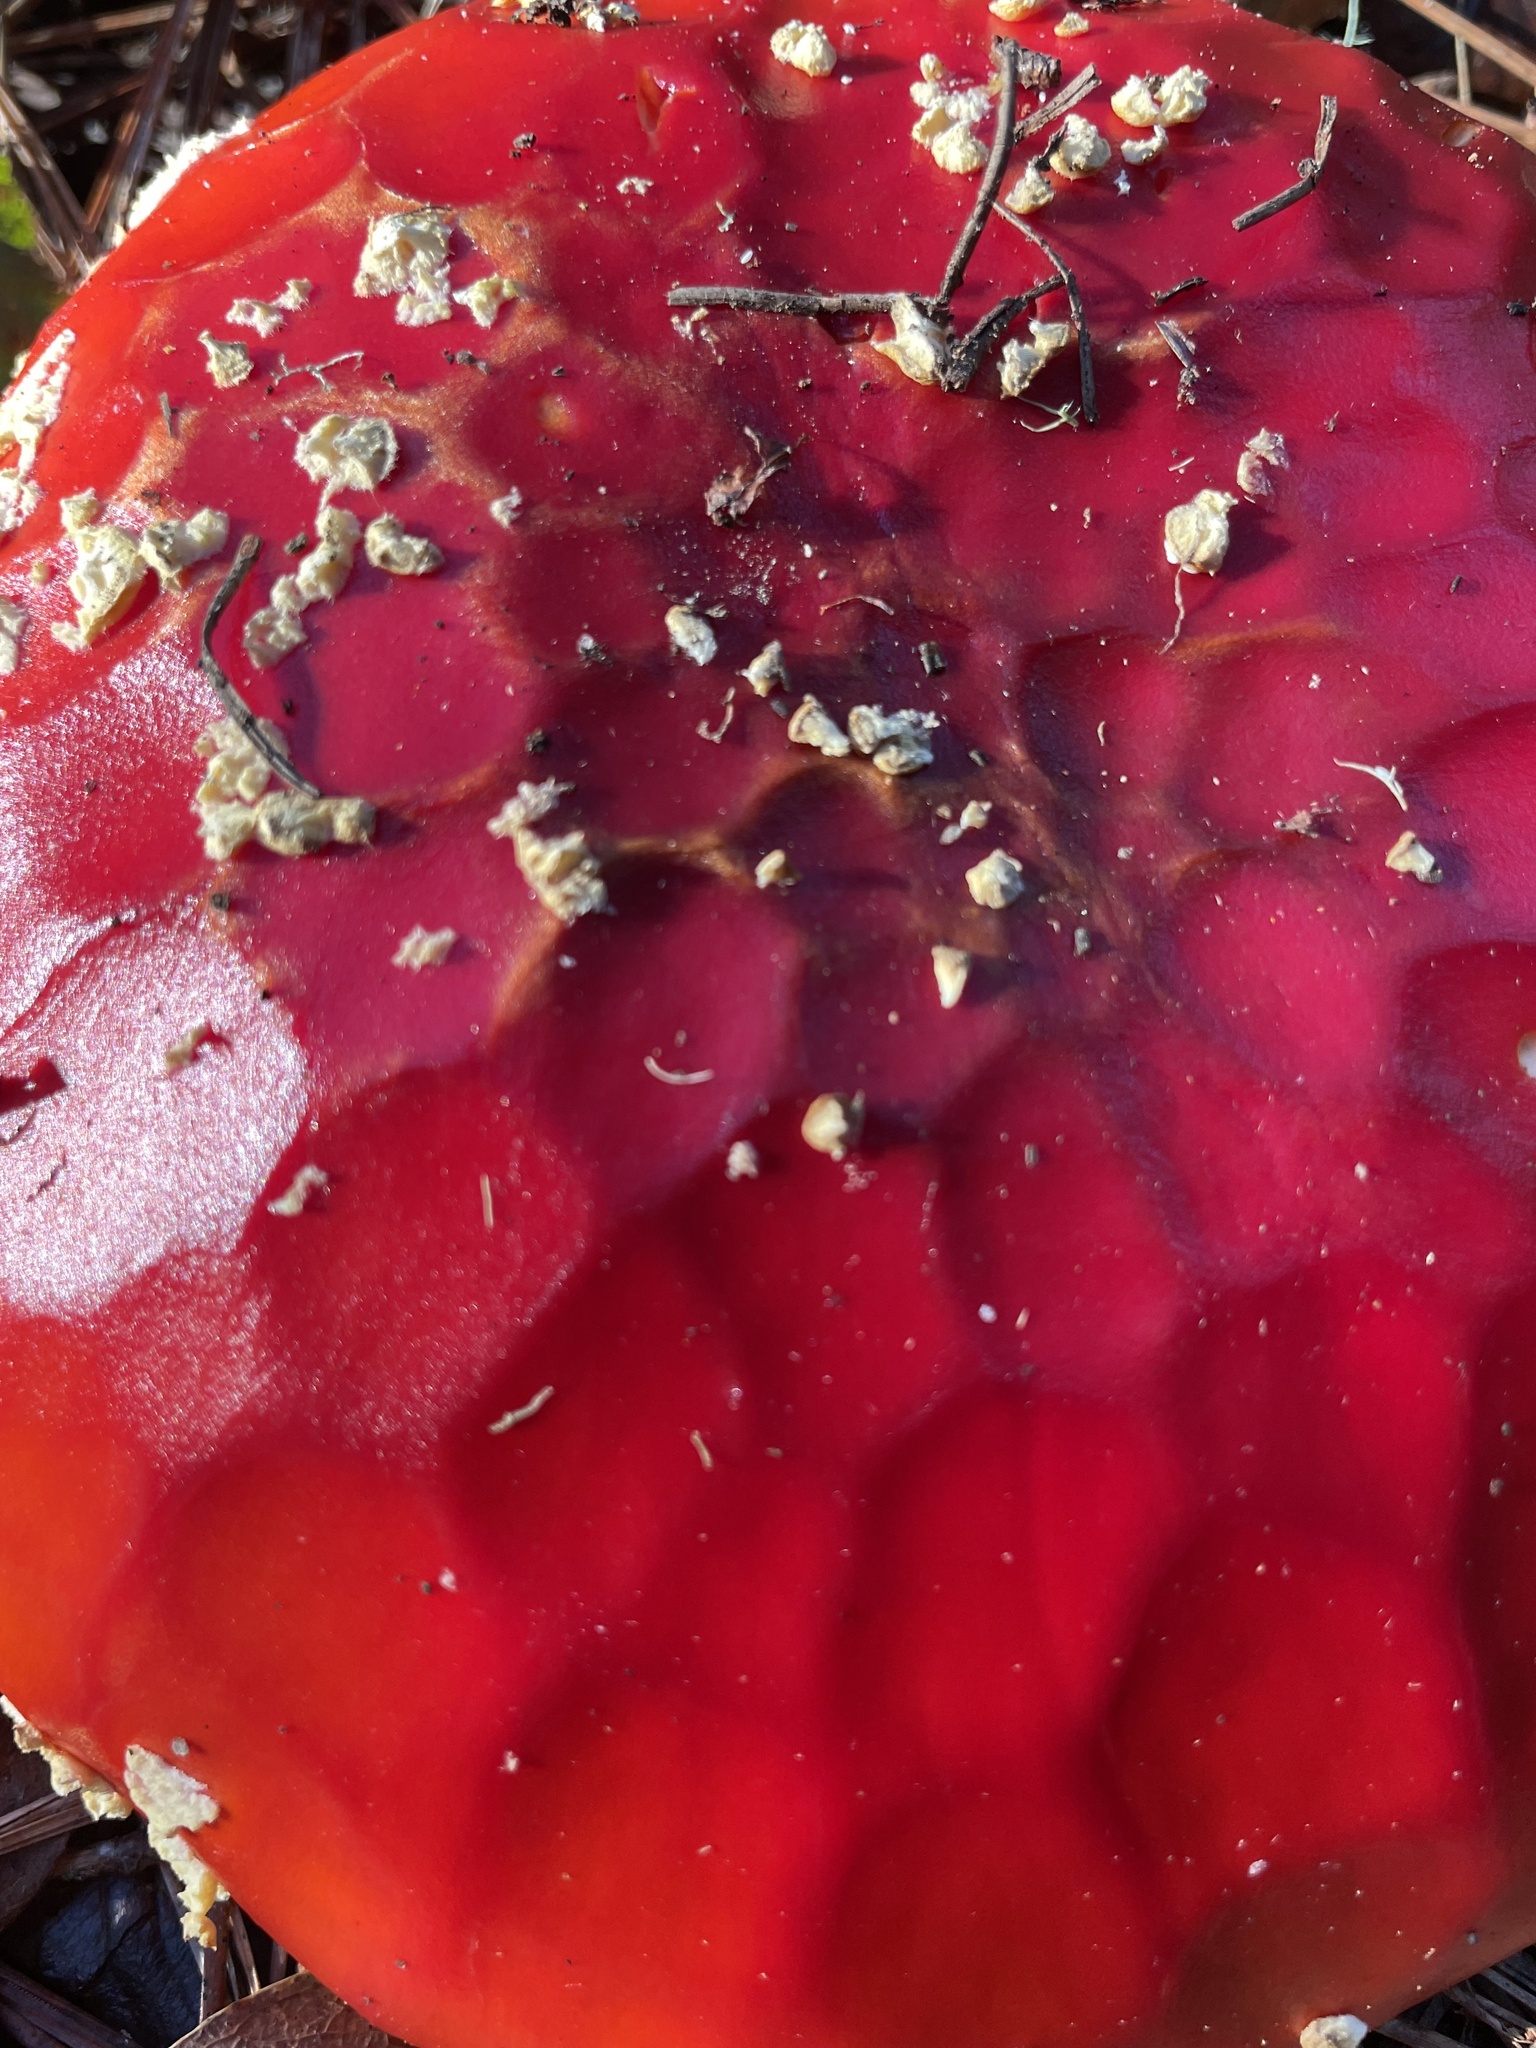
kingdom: Fungi
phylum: Basidiomycota
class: Agaricomycetes
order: Agaricales
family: Amanitaceae
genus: Amanita
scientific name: Amanita muscaria
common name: Fly agaric
